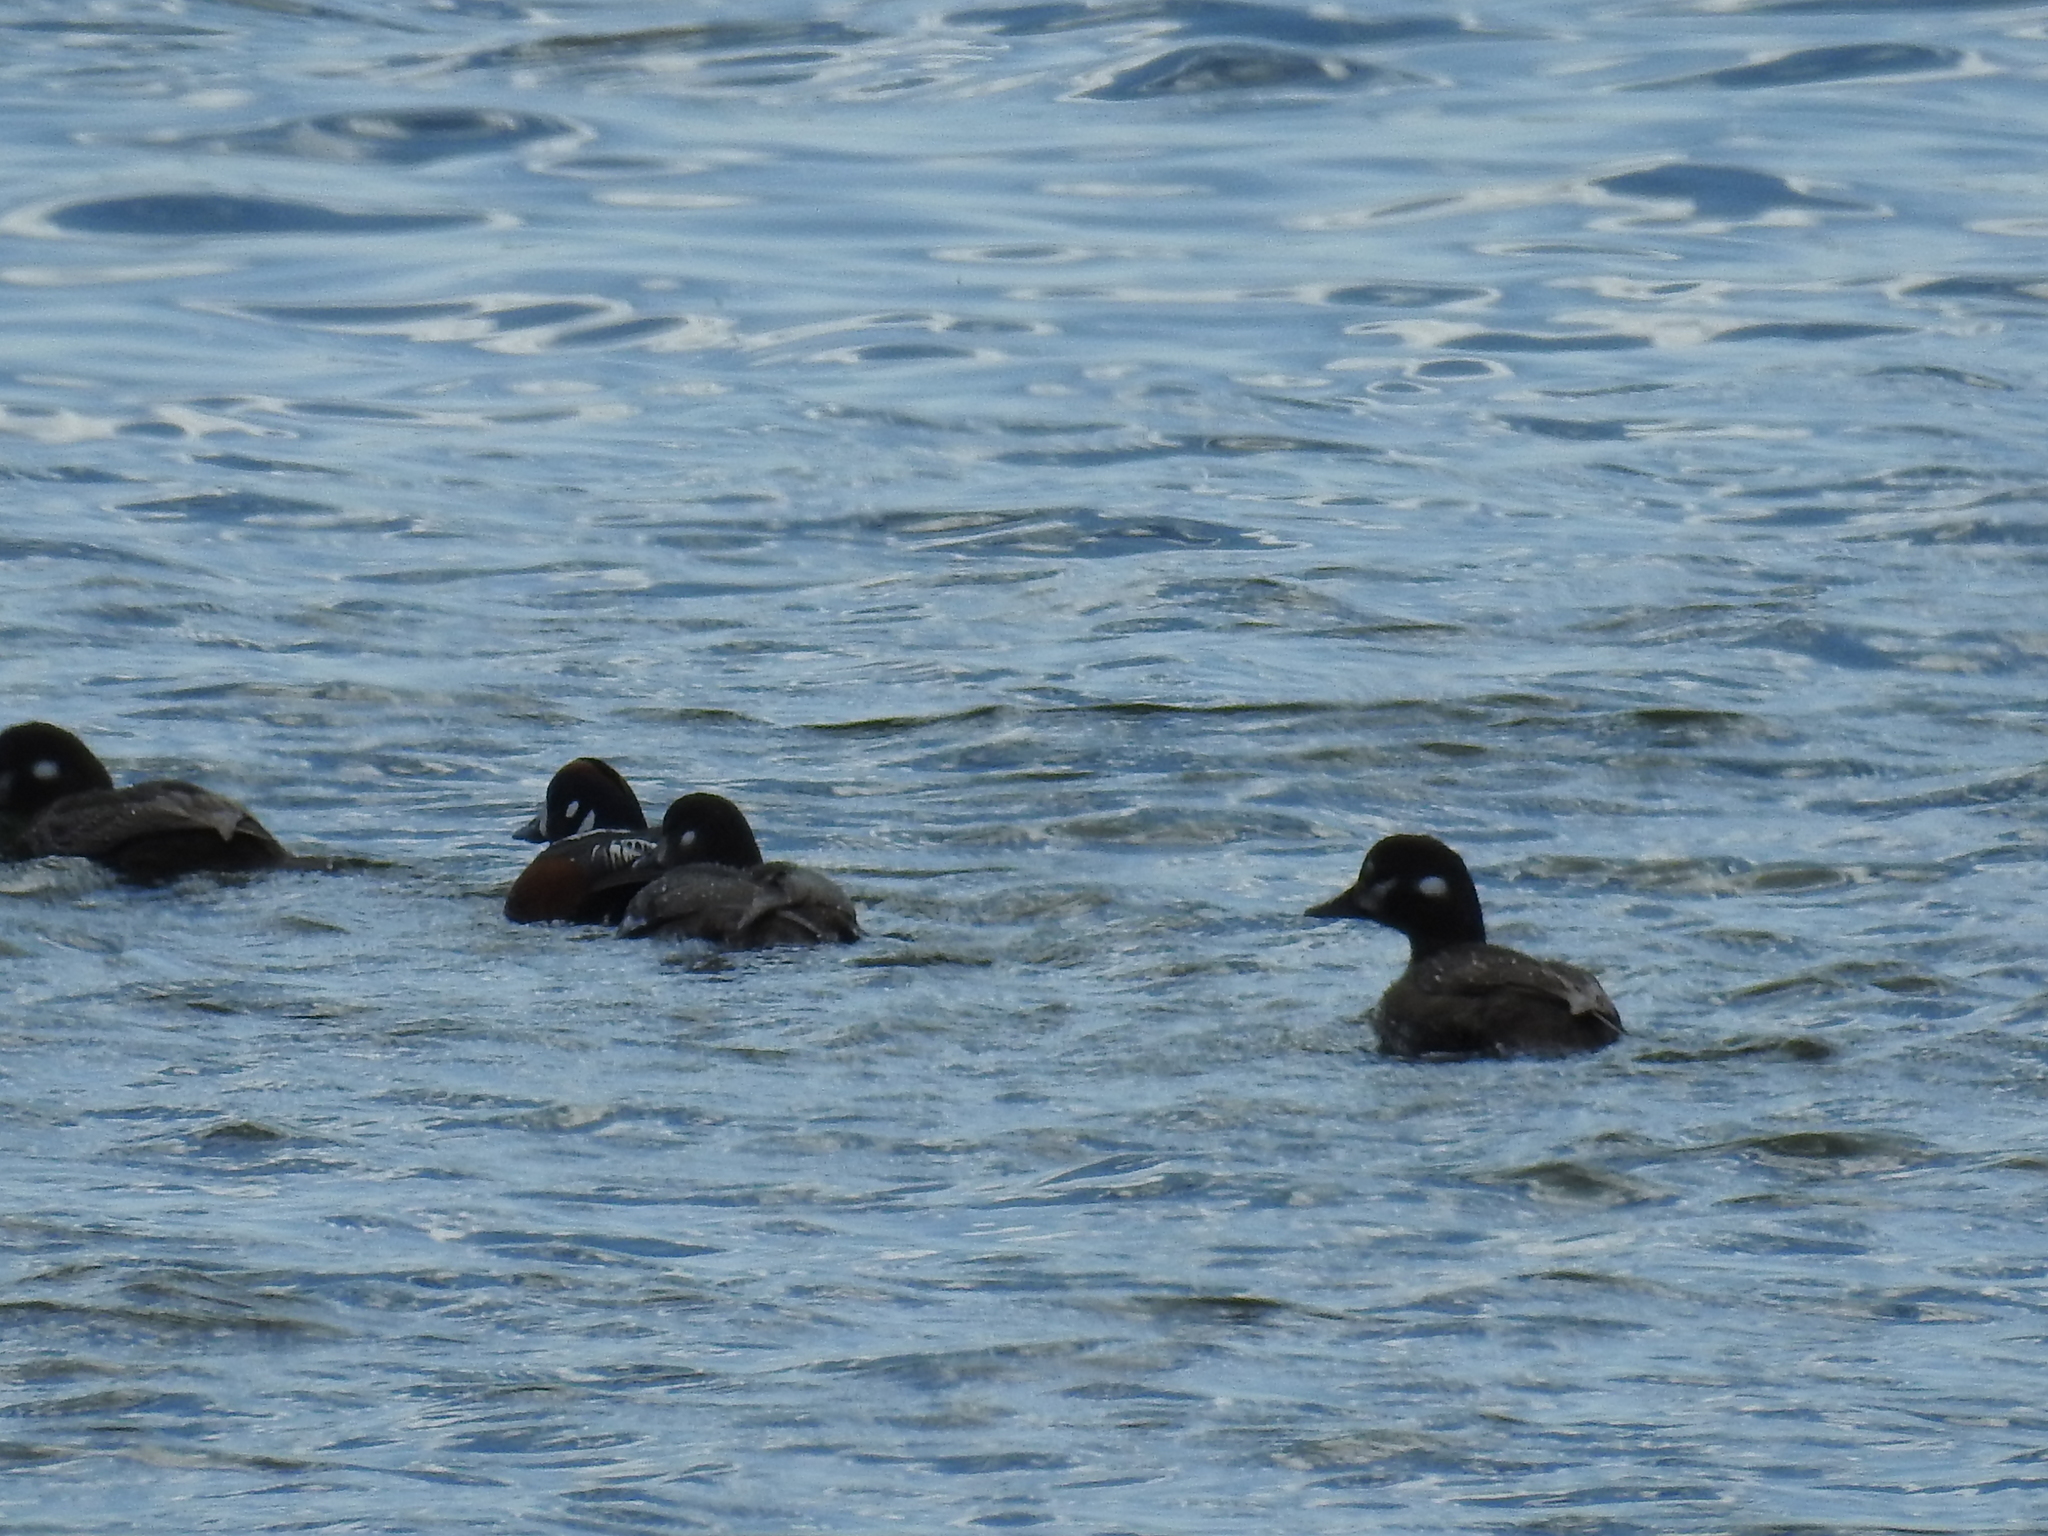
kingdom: Animalia
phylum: Chordata
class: Aves
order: Anseriformes
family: Anatidae
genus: Histrionicus
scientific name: Histrionicus histrionicus
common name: Harlequin duck
